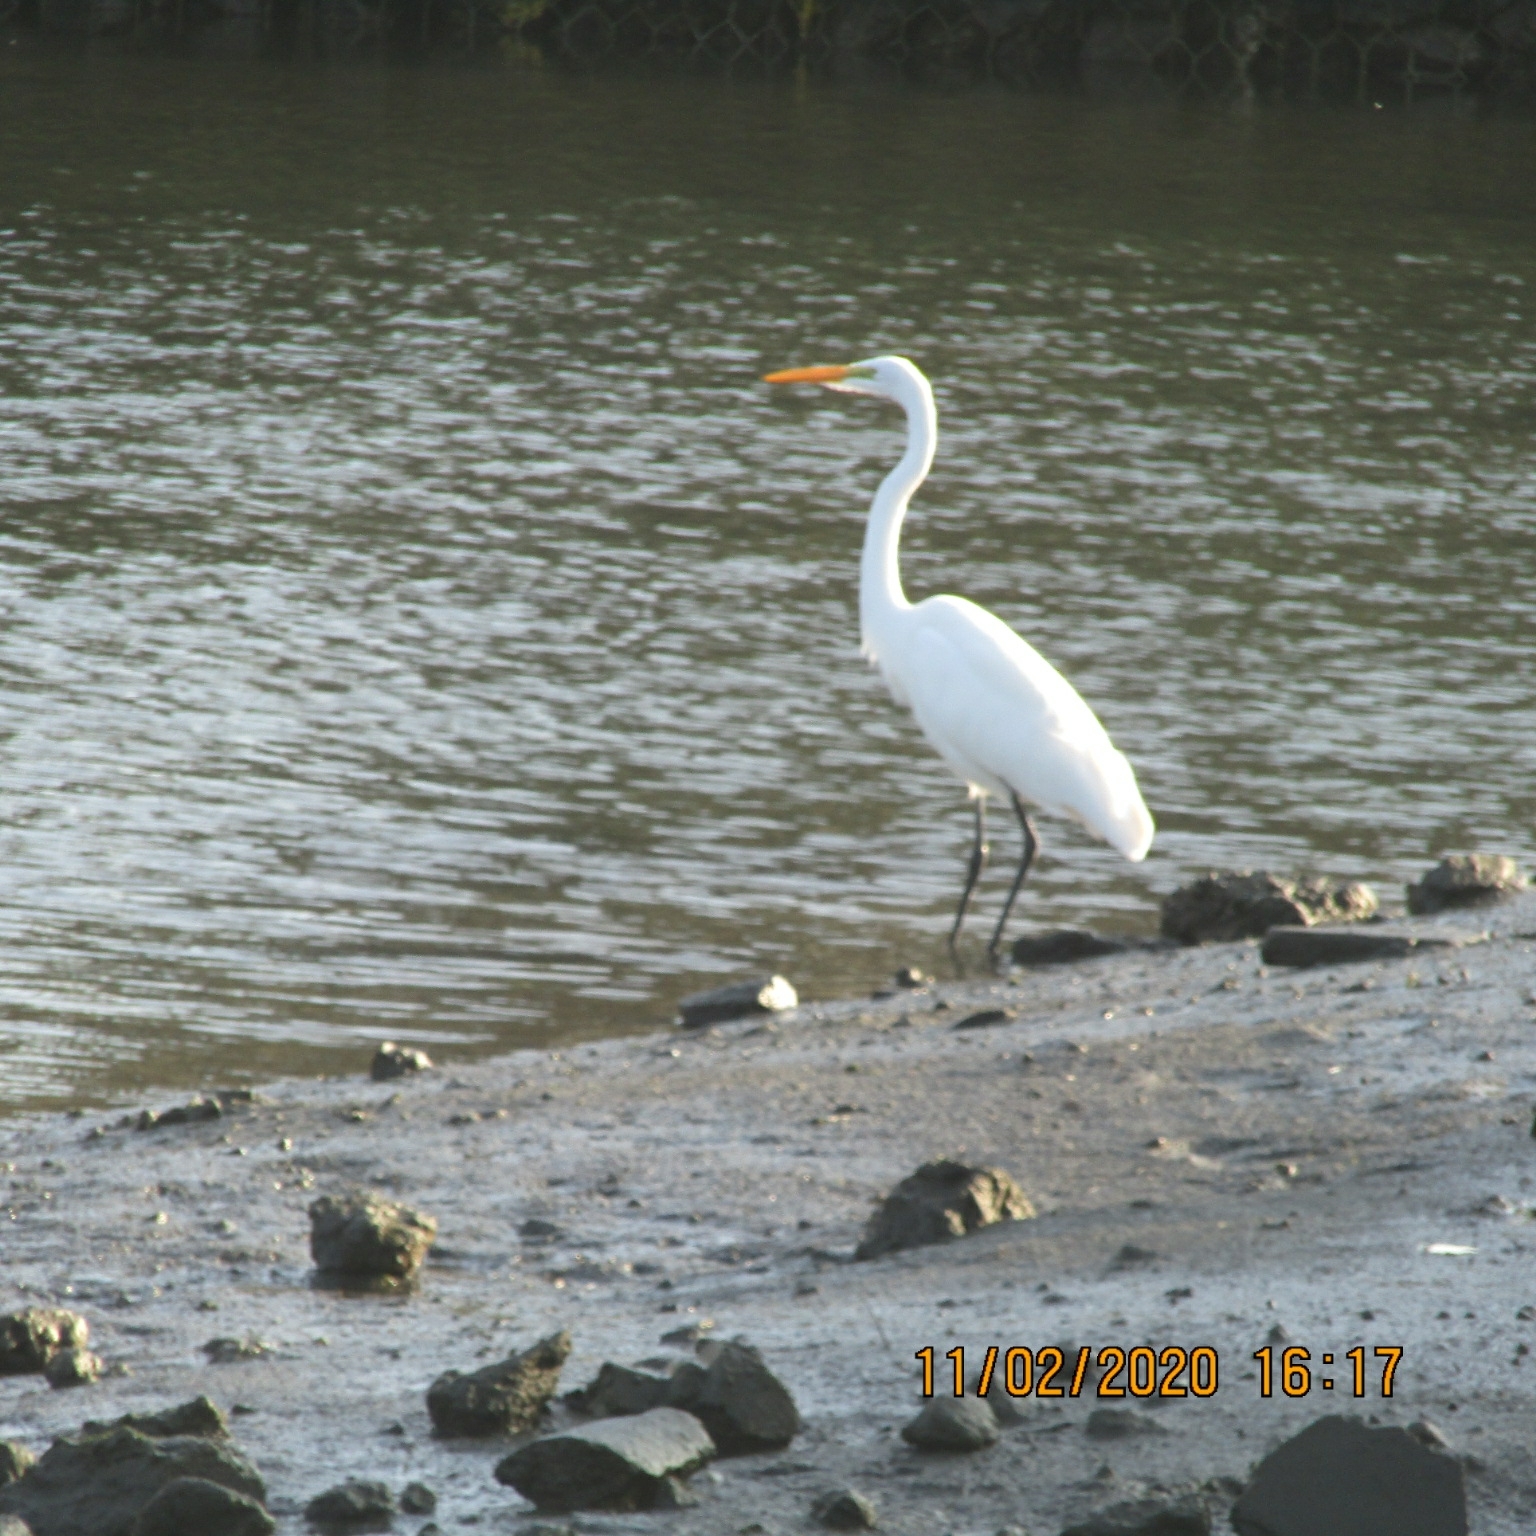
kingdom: Animalia
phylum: Chordata
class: Aves
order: Pelecaniformes
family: Ardeidae
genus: Ardea
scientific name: Ardea alba
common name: Great egret
